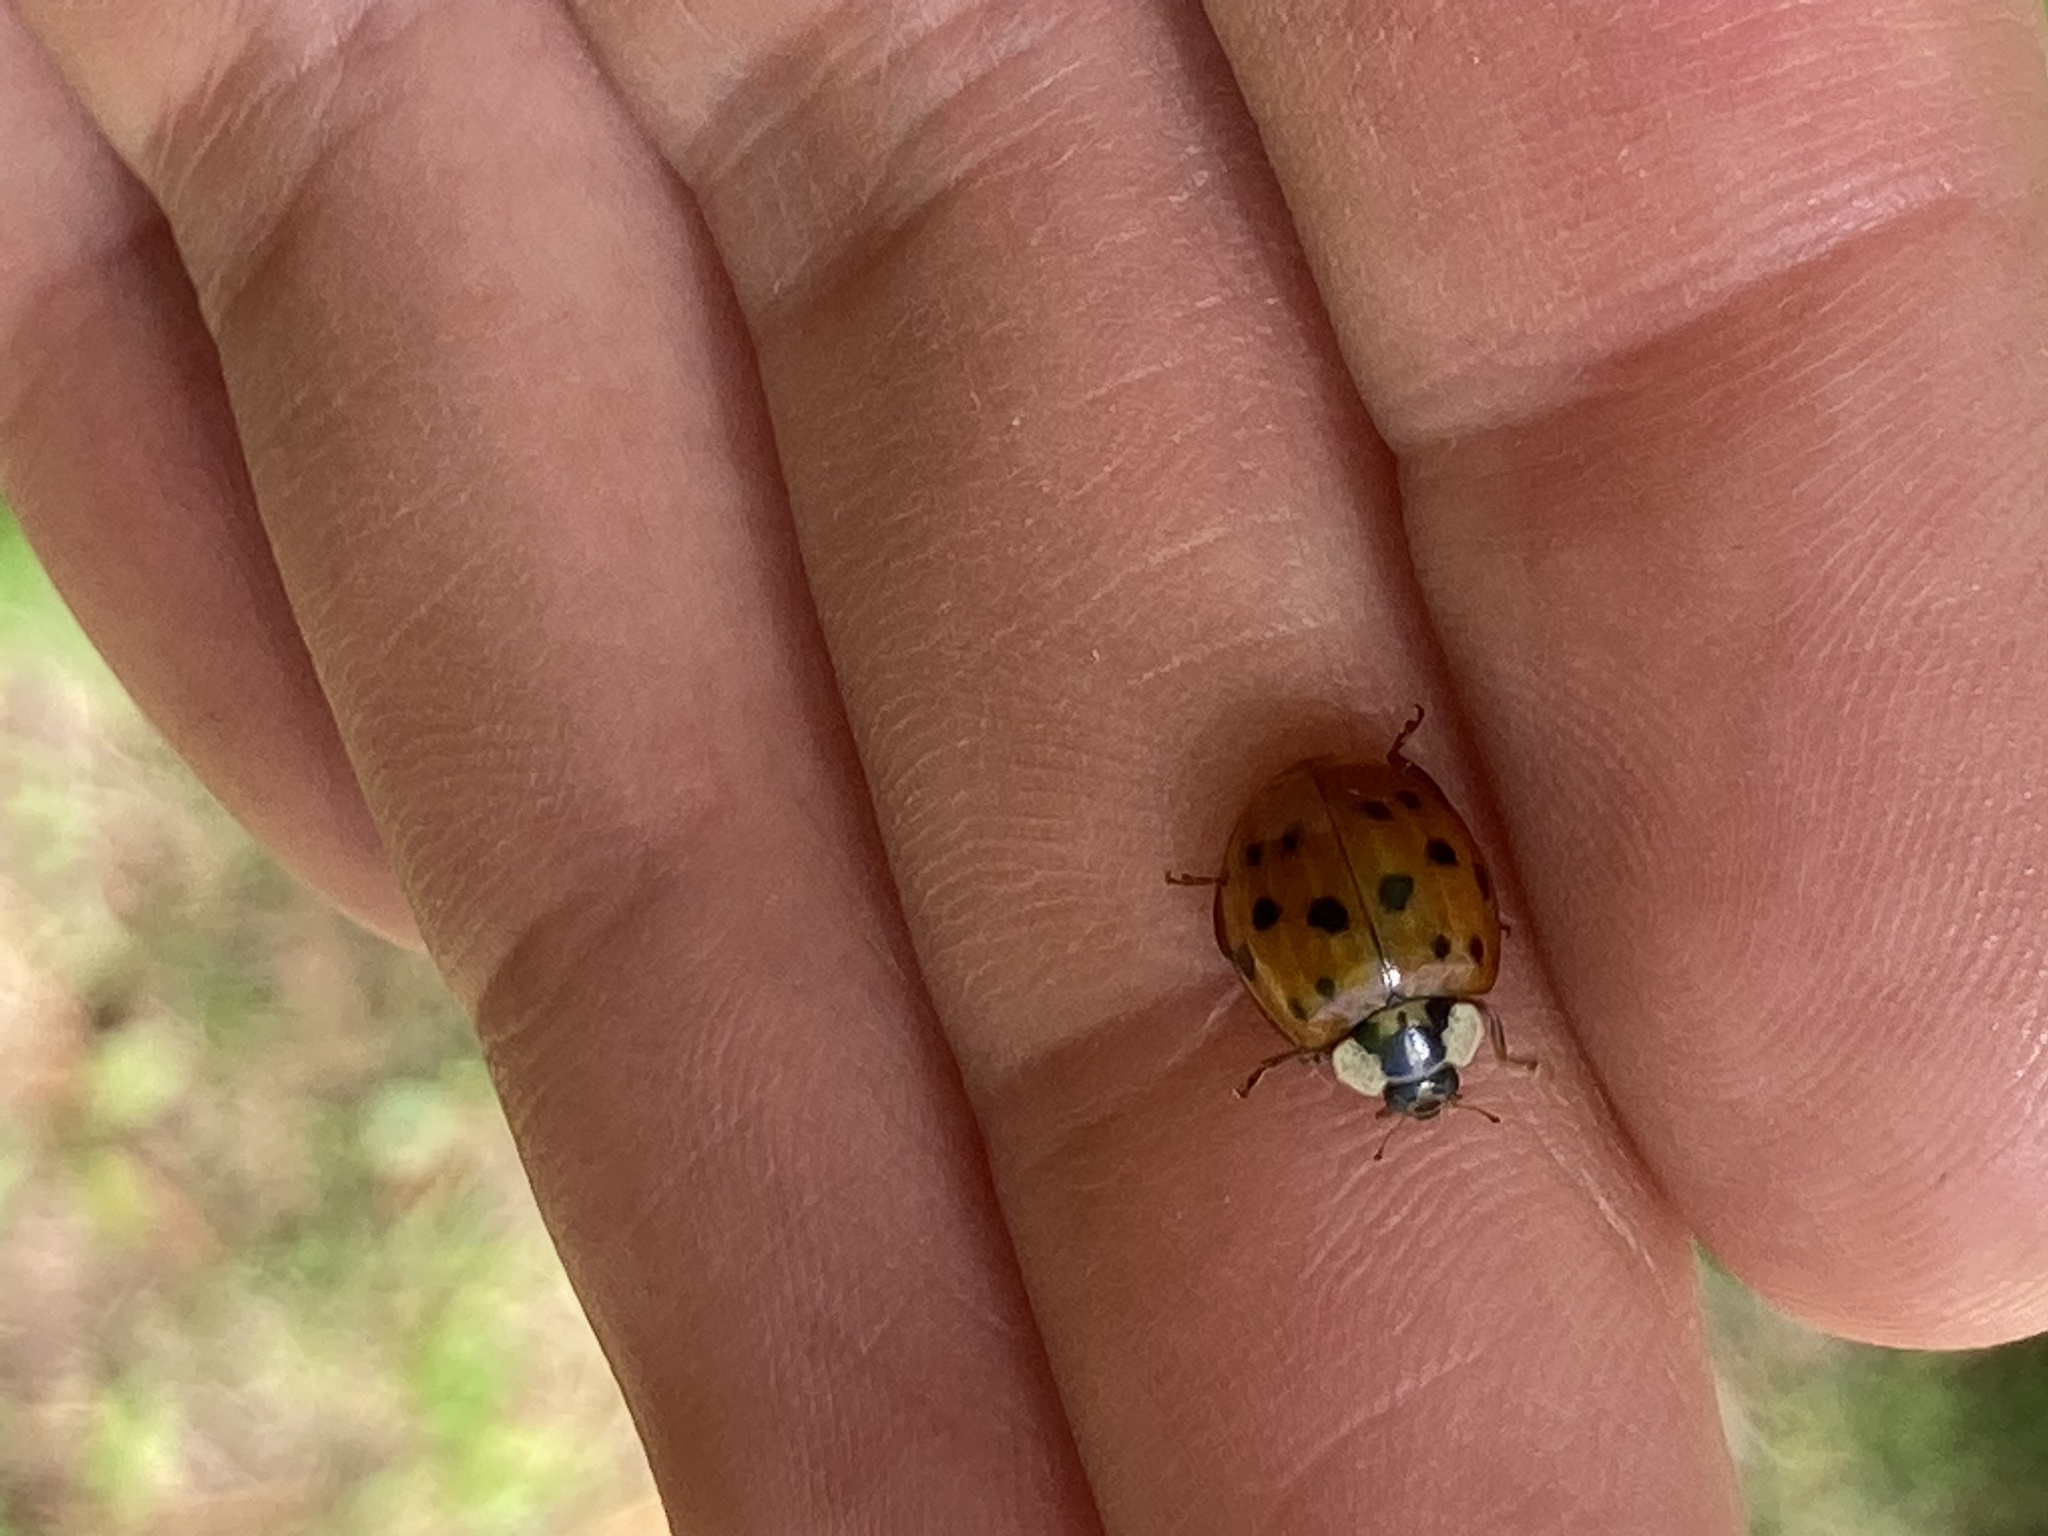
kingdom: Animalia
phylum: Arthropoda
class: Insecta
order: Coleoptera
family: Coccinellidae
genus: Harmonia
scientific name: Harmonia axyridis
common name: Harlequin ladybird
